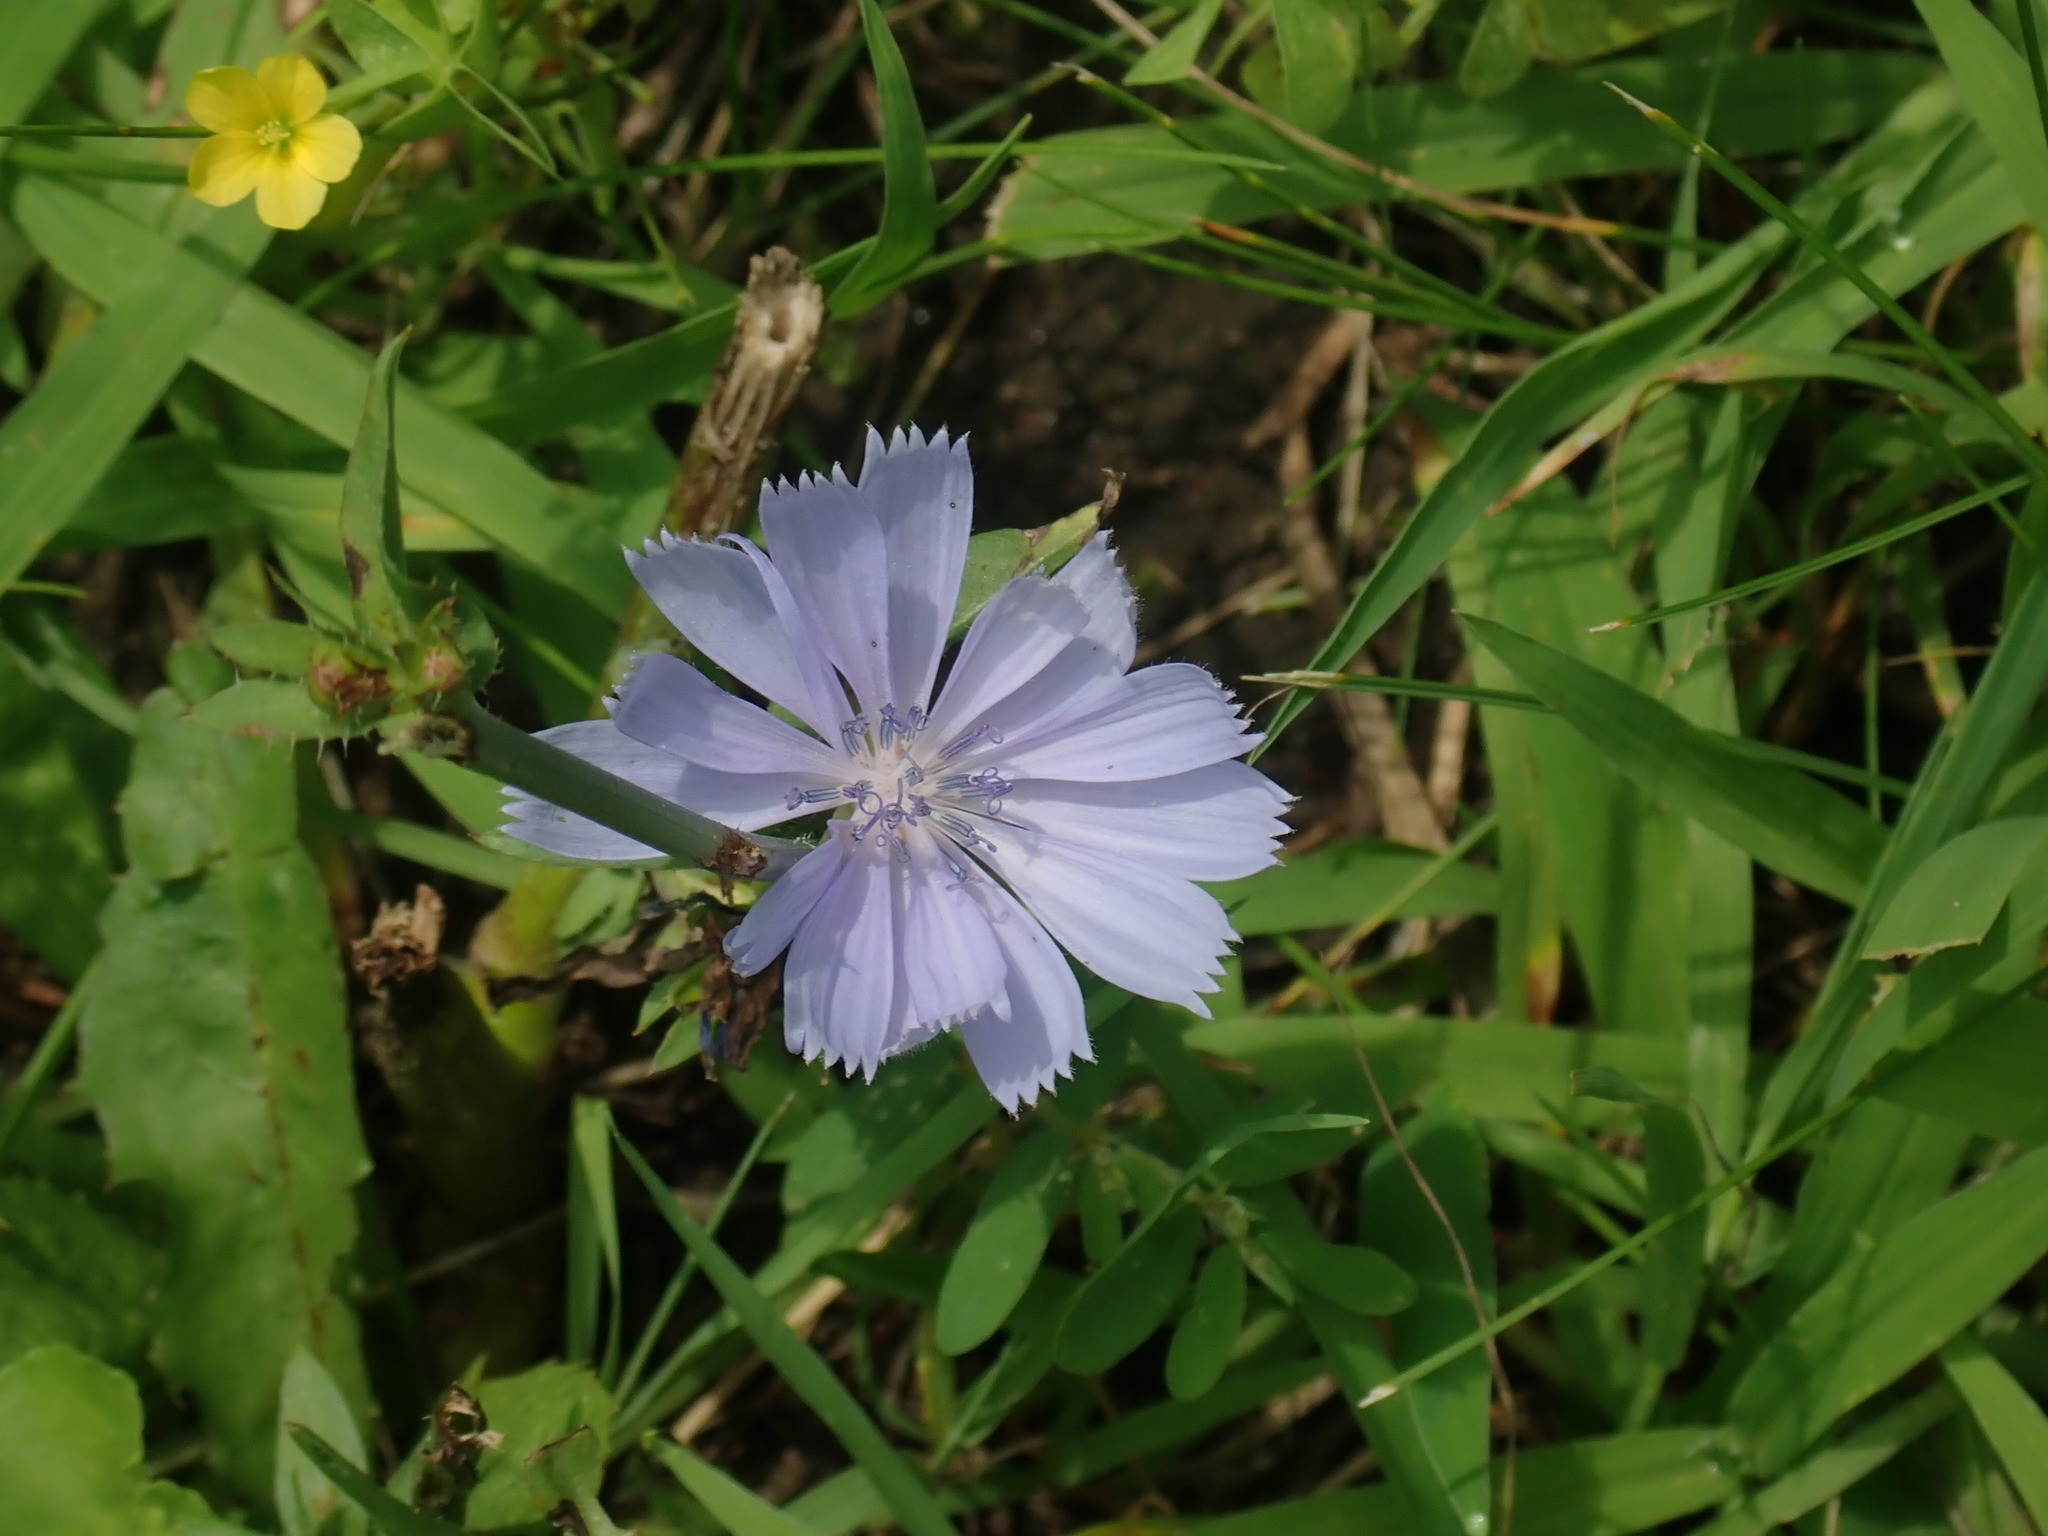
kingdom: Plantae
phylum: Tracheophyta
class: Magnoliopsida
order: Asterales
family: Asteraceae
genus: Cichorium
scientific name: Cichorium intybus
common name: Chicory
